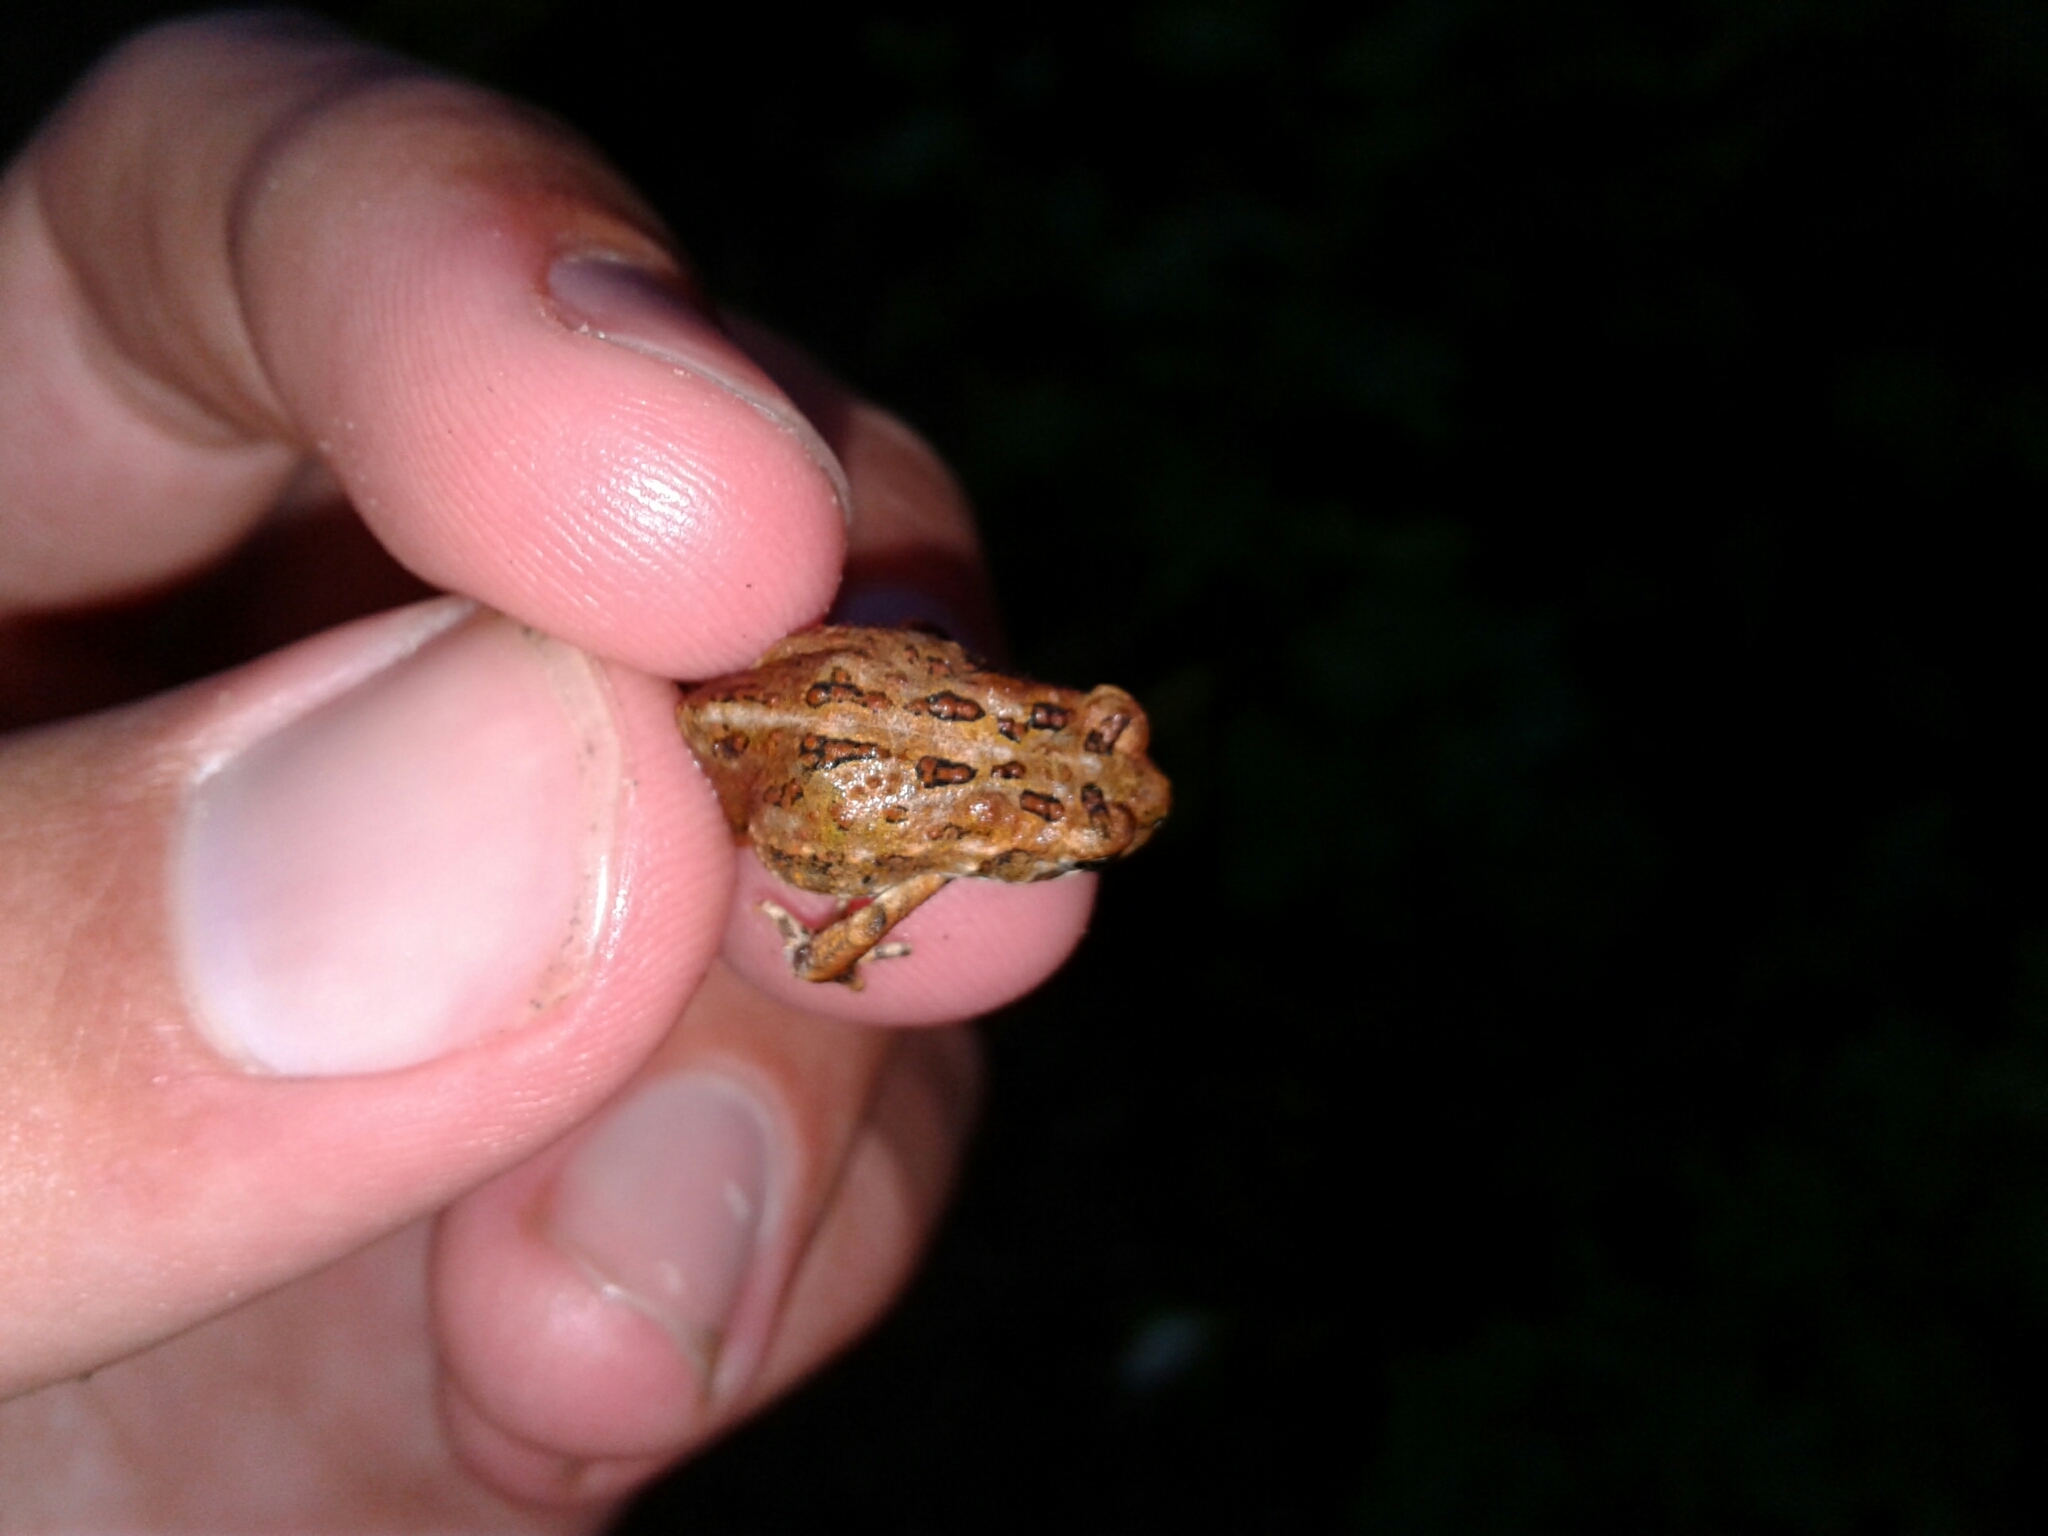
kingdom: Animalia
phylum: Chordata
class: Amphibia
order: Anura
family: Bufonidae
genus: Anaxyrus
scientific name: Anaxyrus americanus
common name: American toad
